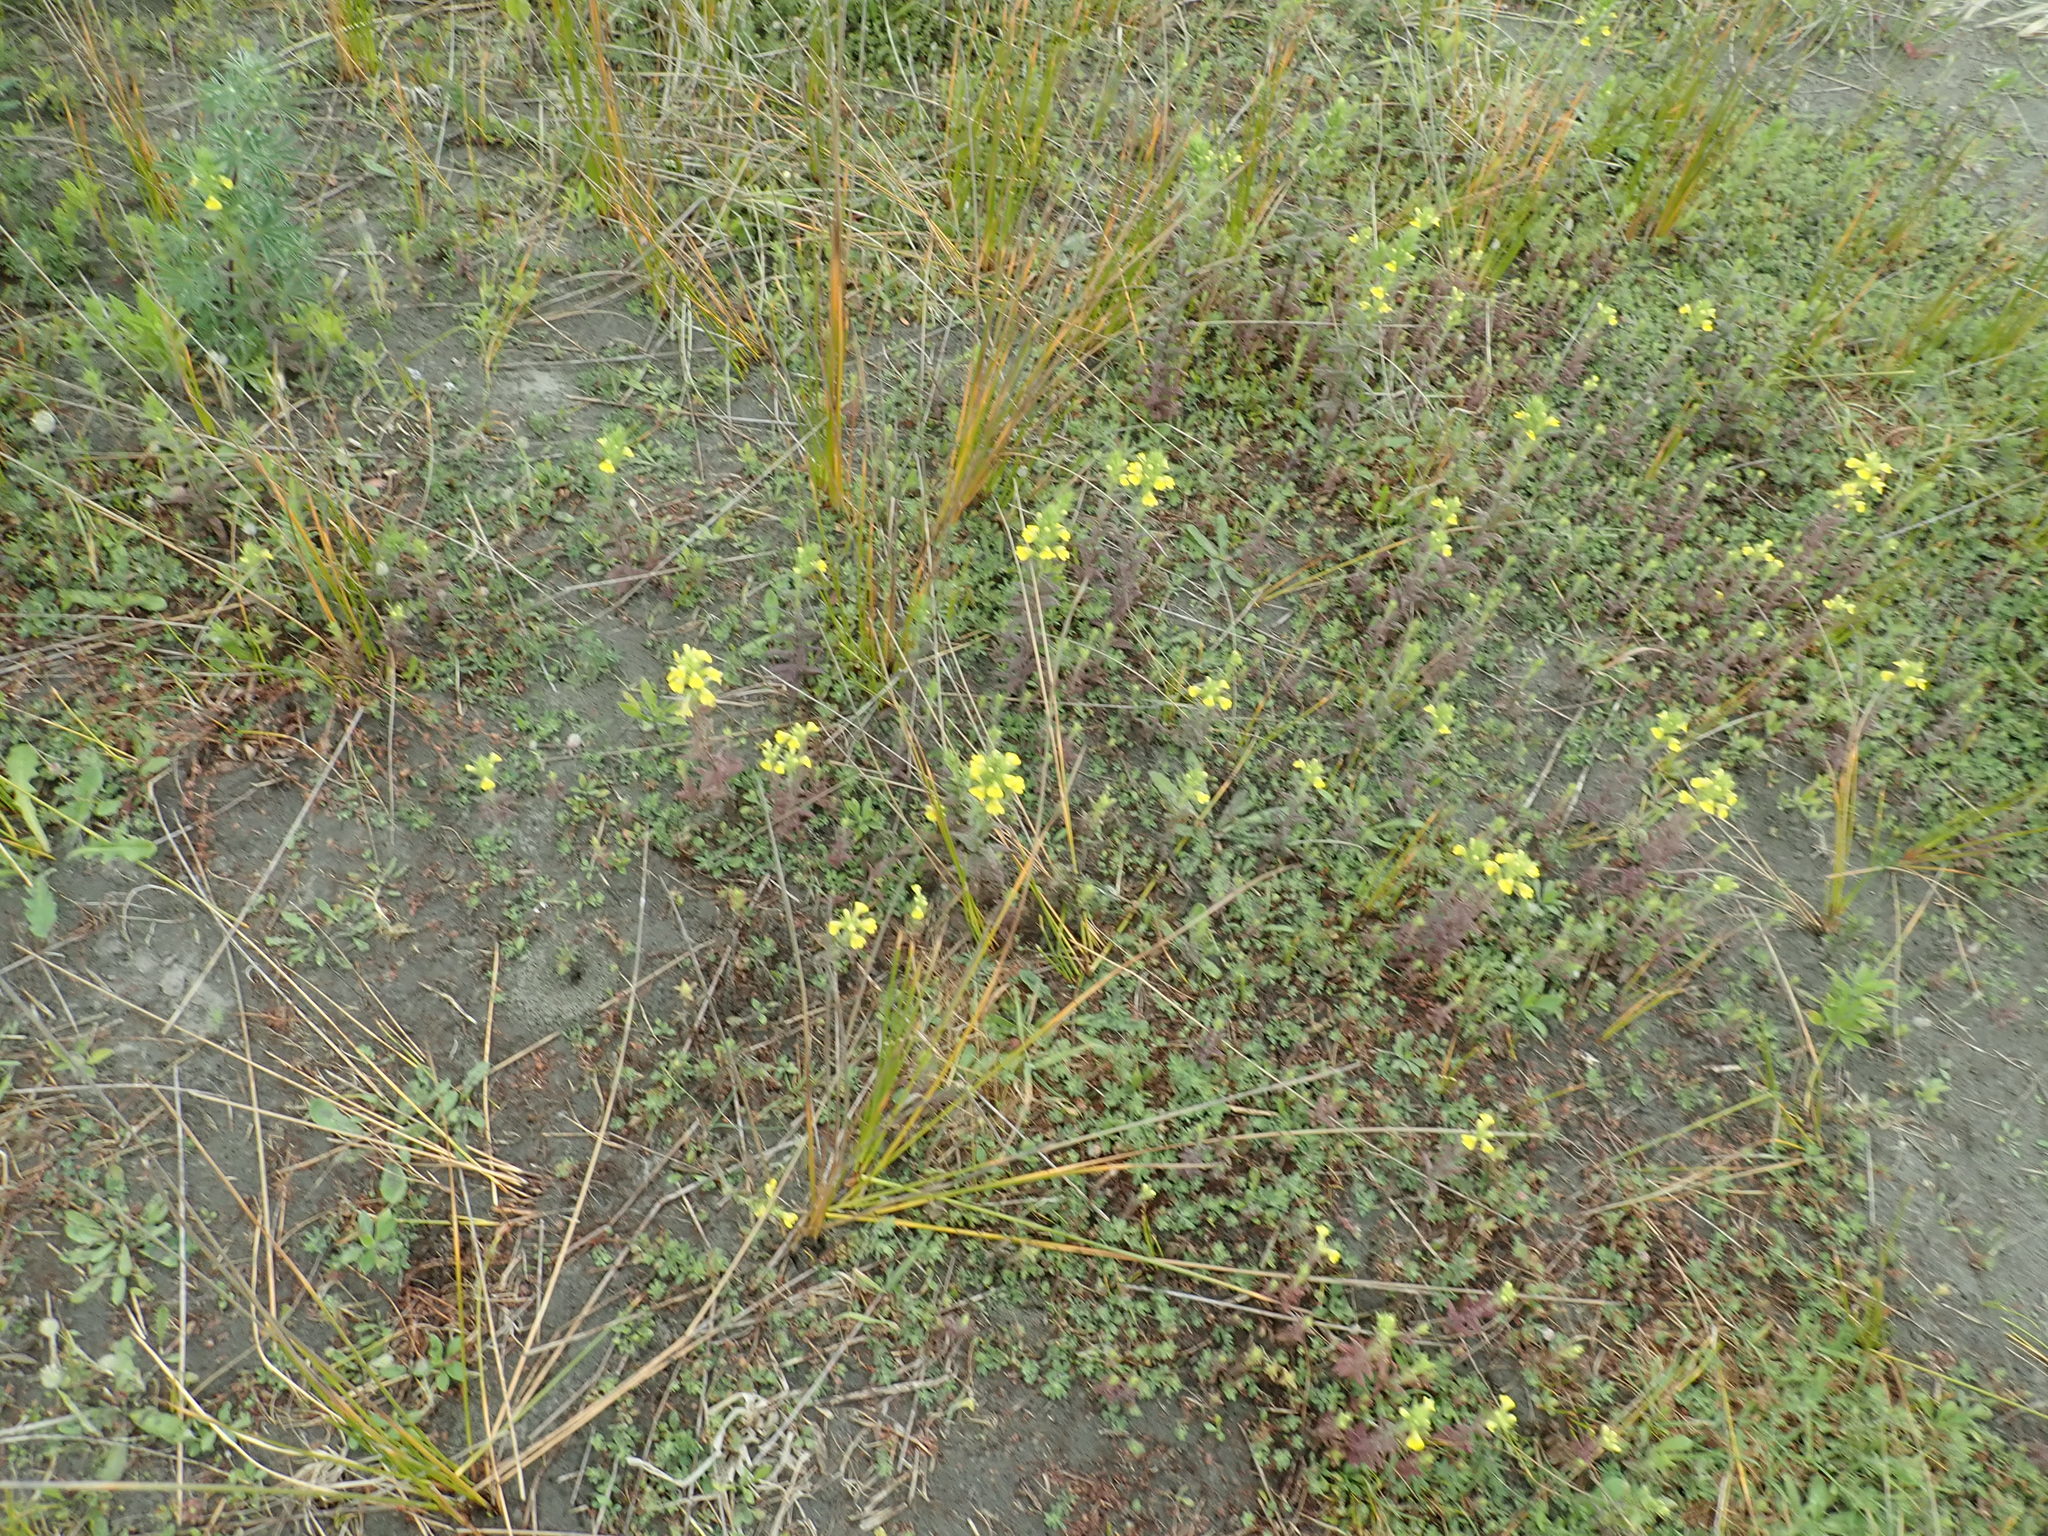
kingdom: Plantae
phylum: Tracheophyta
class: Magnoliopsida
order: Lamiales
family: Orobanchaceae
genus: Bellardia
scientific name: Bellardia viscosa
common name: Sticky parentucellia
